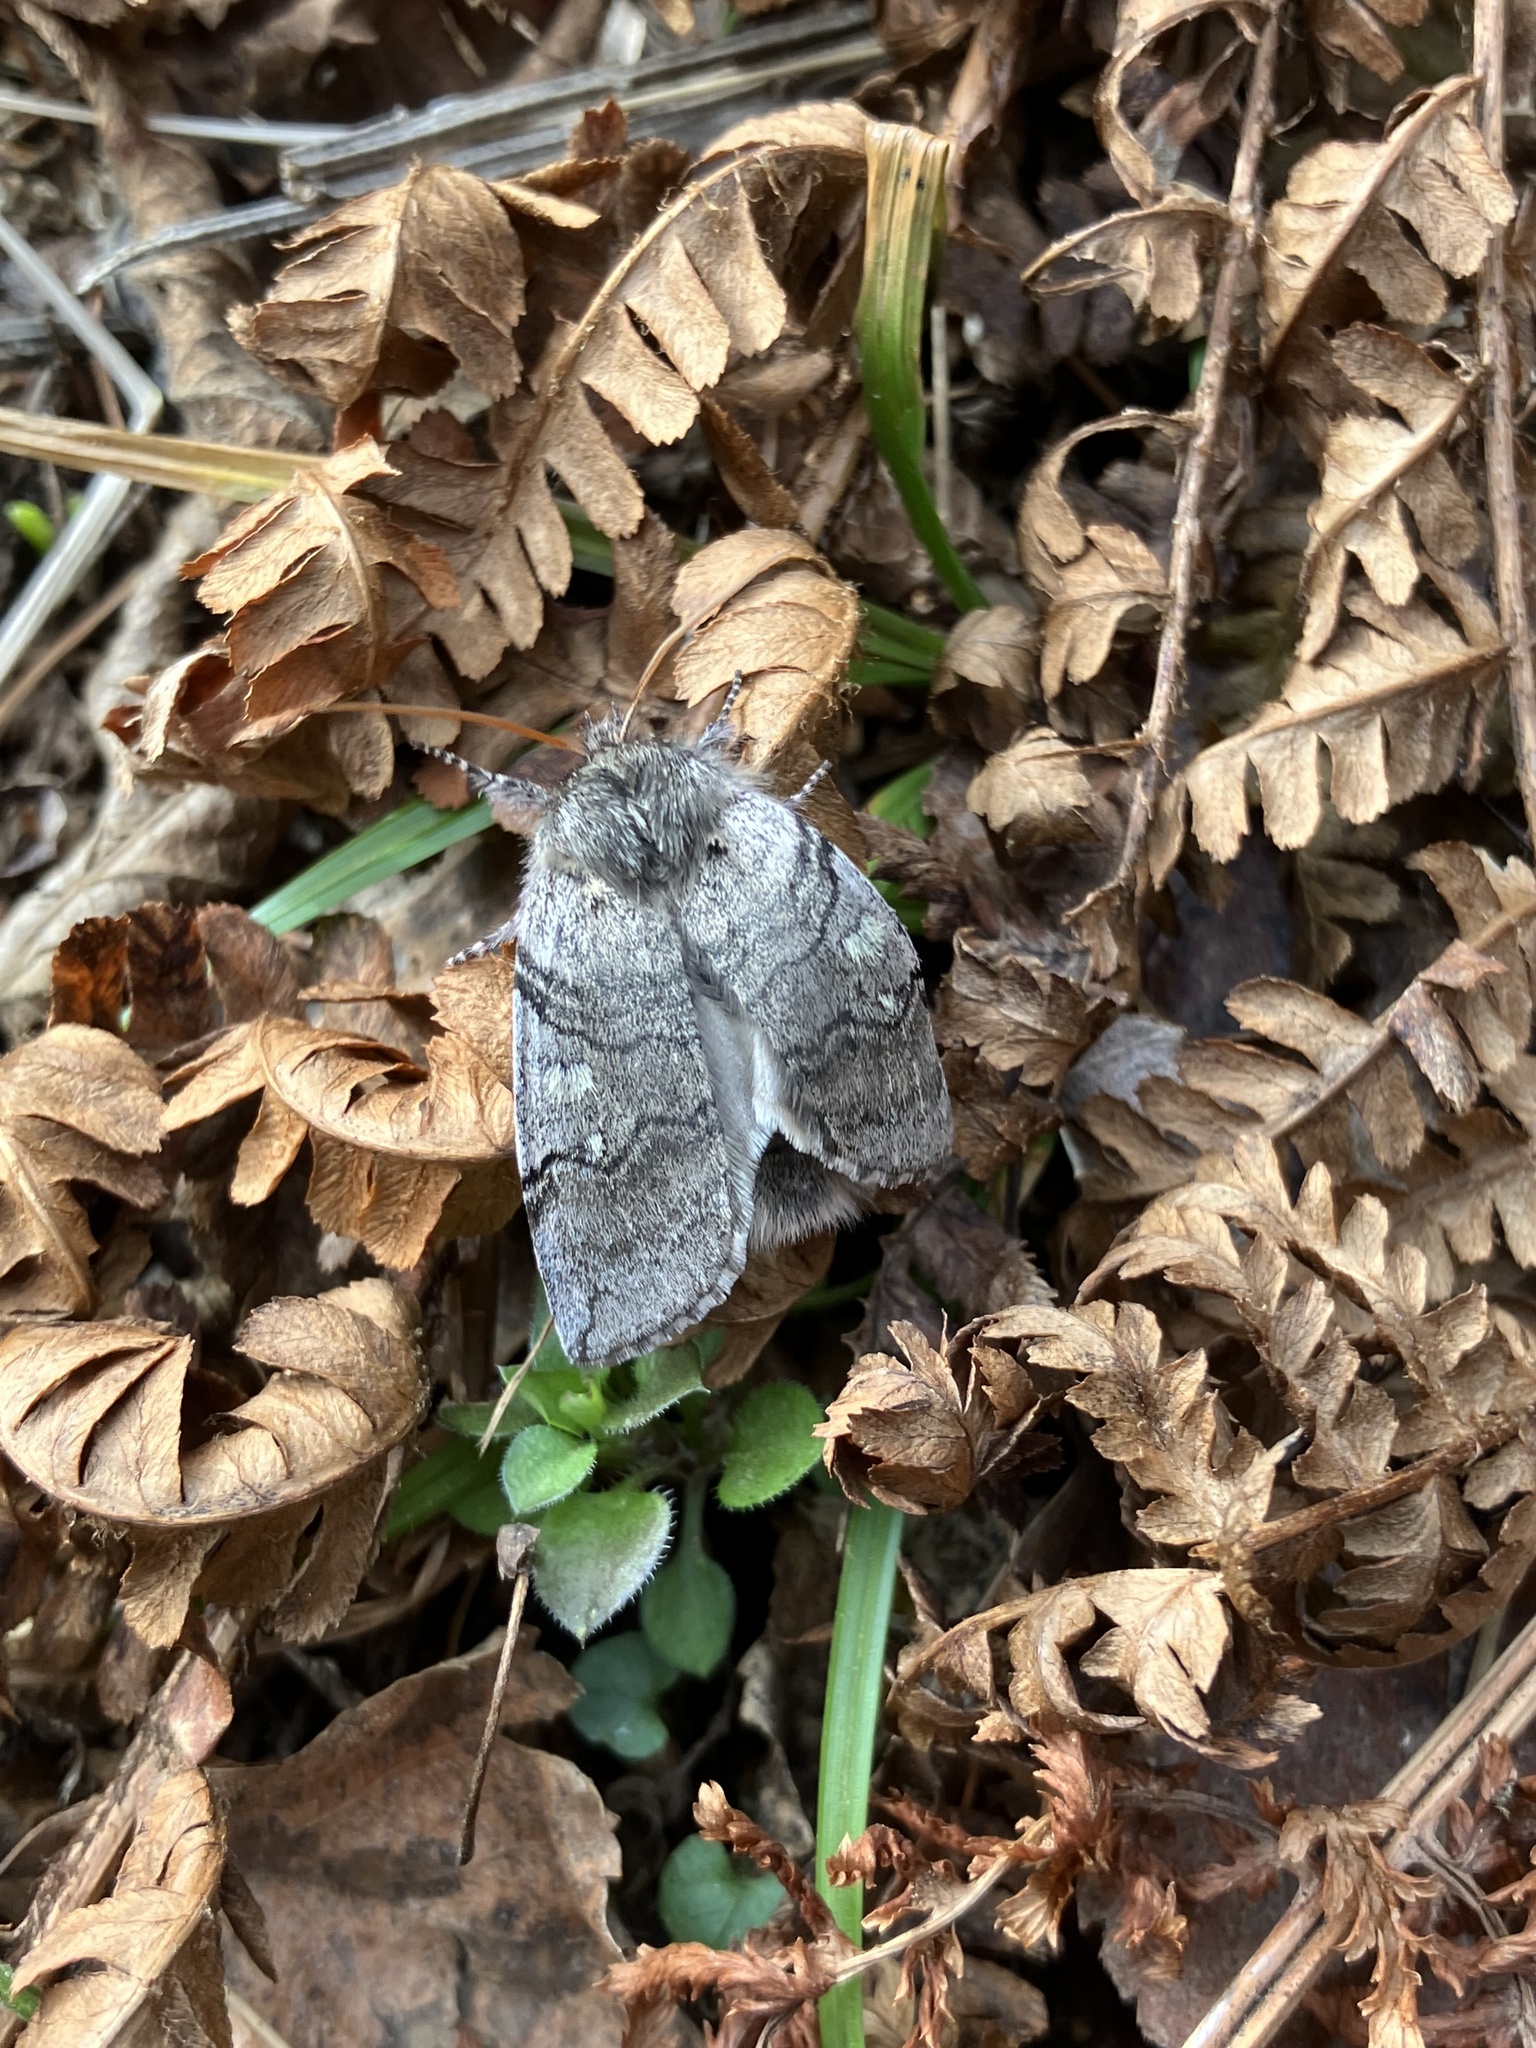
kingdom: Animalia
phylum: Arthropoda
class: Insecta
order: Lepidoptera
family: Drepanidae
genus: Achlya
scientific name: Achlya flavicornis
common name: Yellow horned
